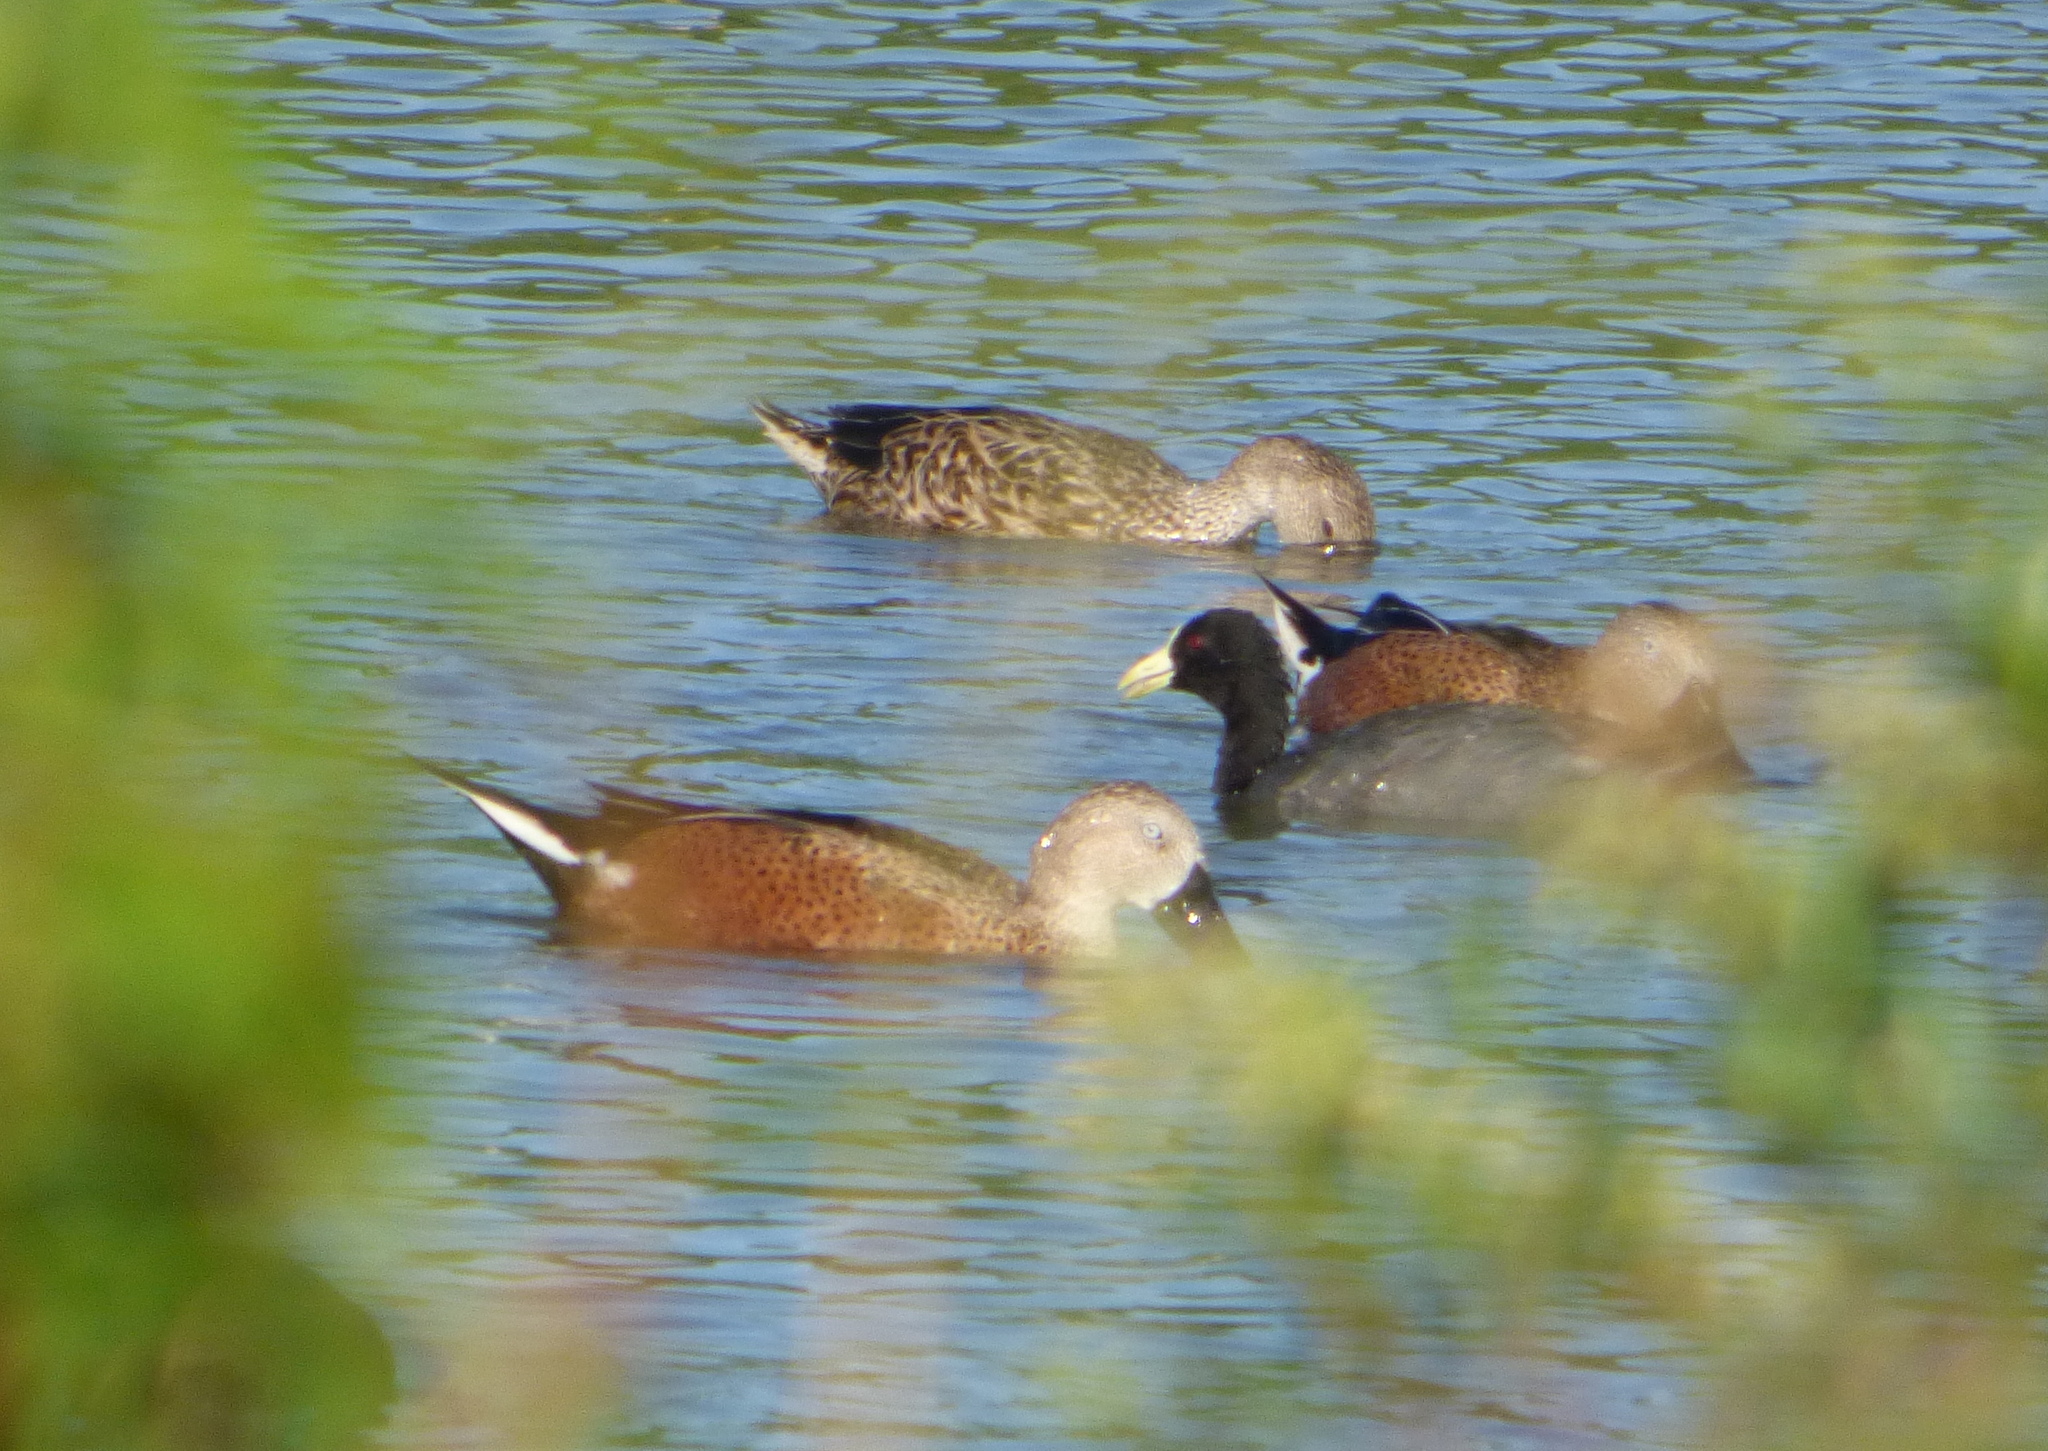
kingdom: Animalia
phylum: Chordata
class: Aves
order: Anseriformes
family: Anatidae
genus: Spatula
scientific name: Spatula platalea
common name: Red shoveler
